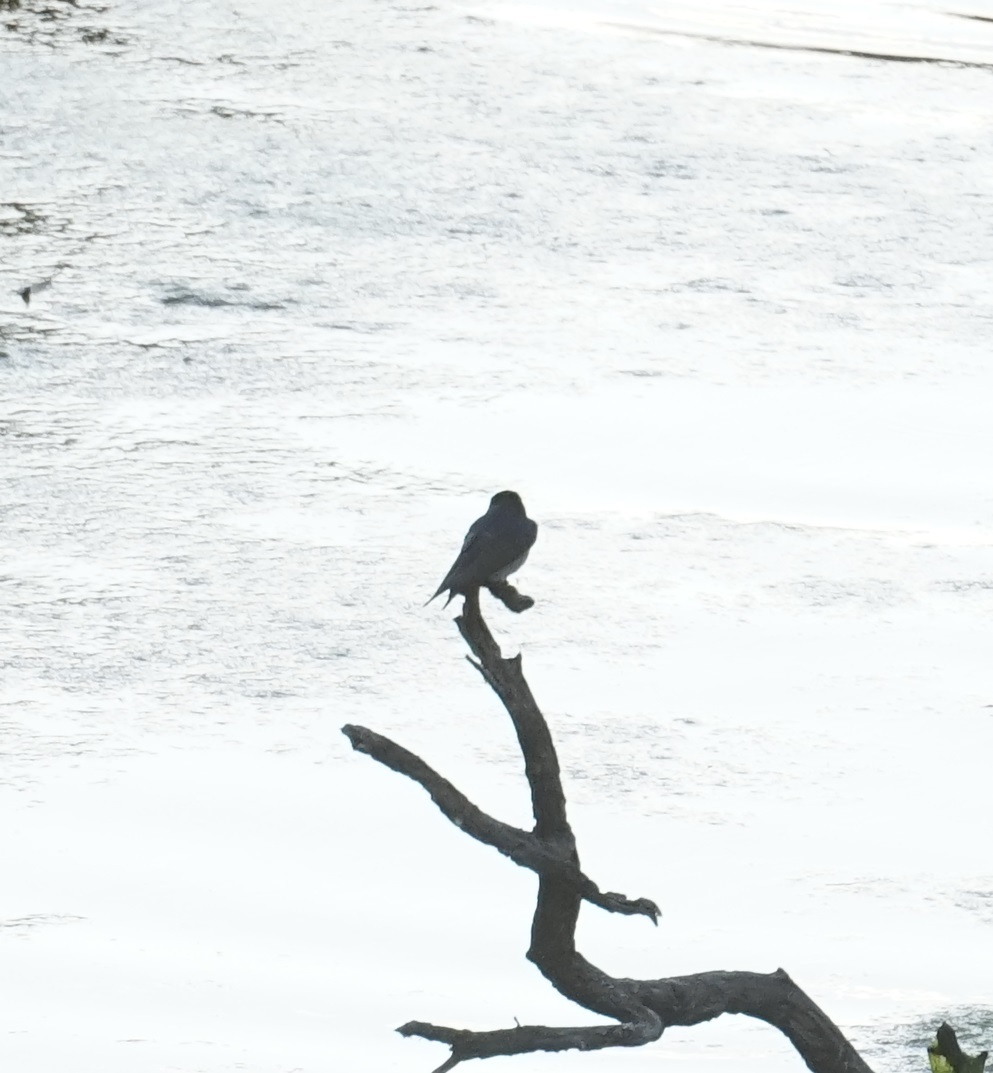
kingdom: Animalia
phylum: Chordata
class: Aves
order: Passeriformes
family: Hirundinidae
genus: Hirundo
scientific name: Hirundo neoxena
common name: Welcome swallow
